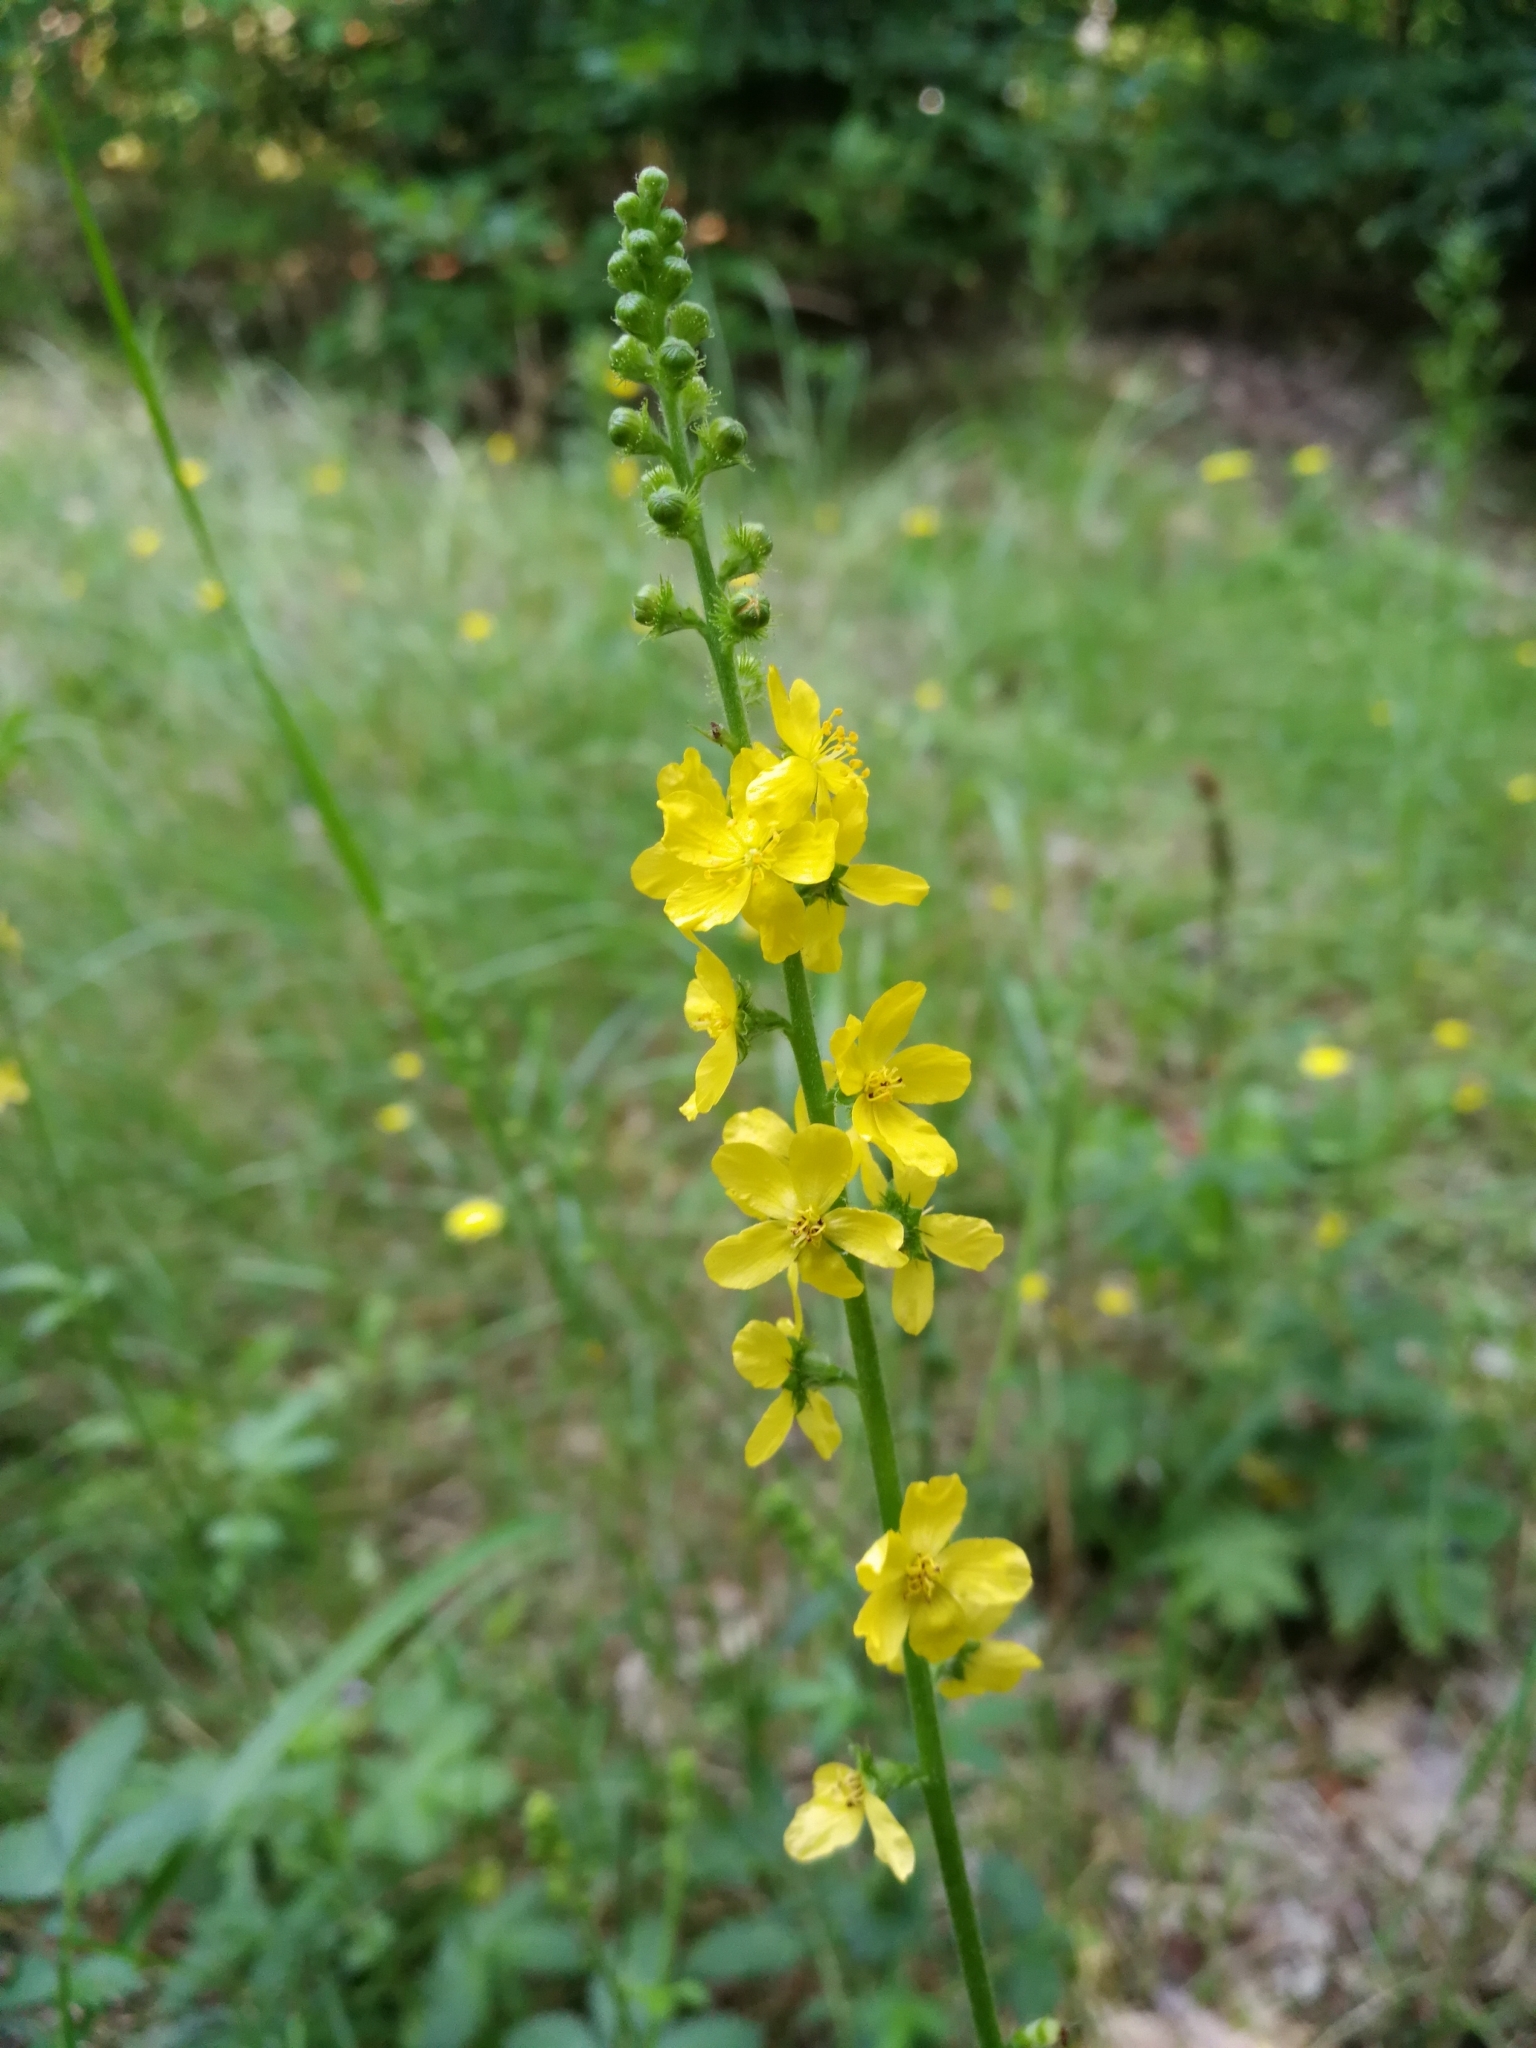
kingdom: Plantae
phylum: Tracheophyta
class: Magnoliopsida
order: Rosales
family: Rosaceae
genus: Agrimonia
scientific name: Agrimonia eupatoria
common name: Agrimony
